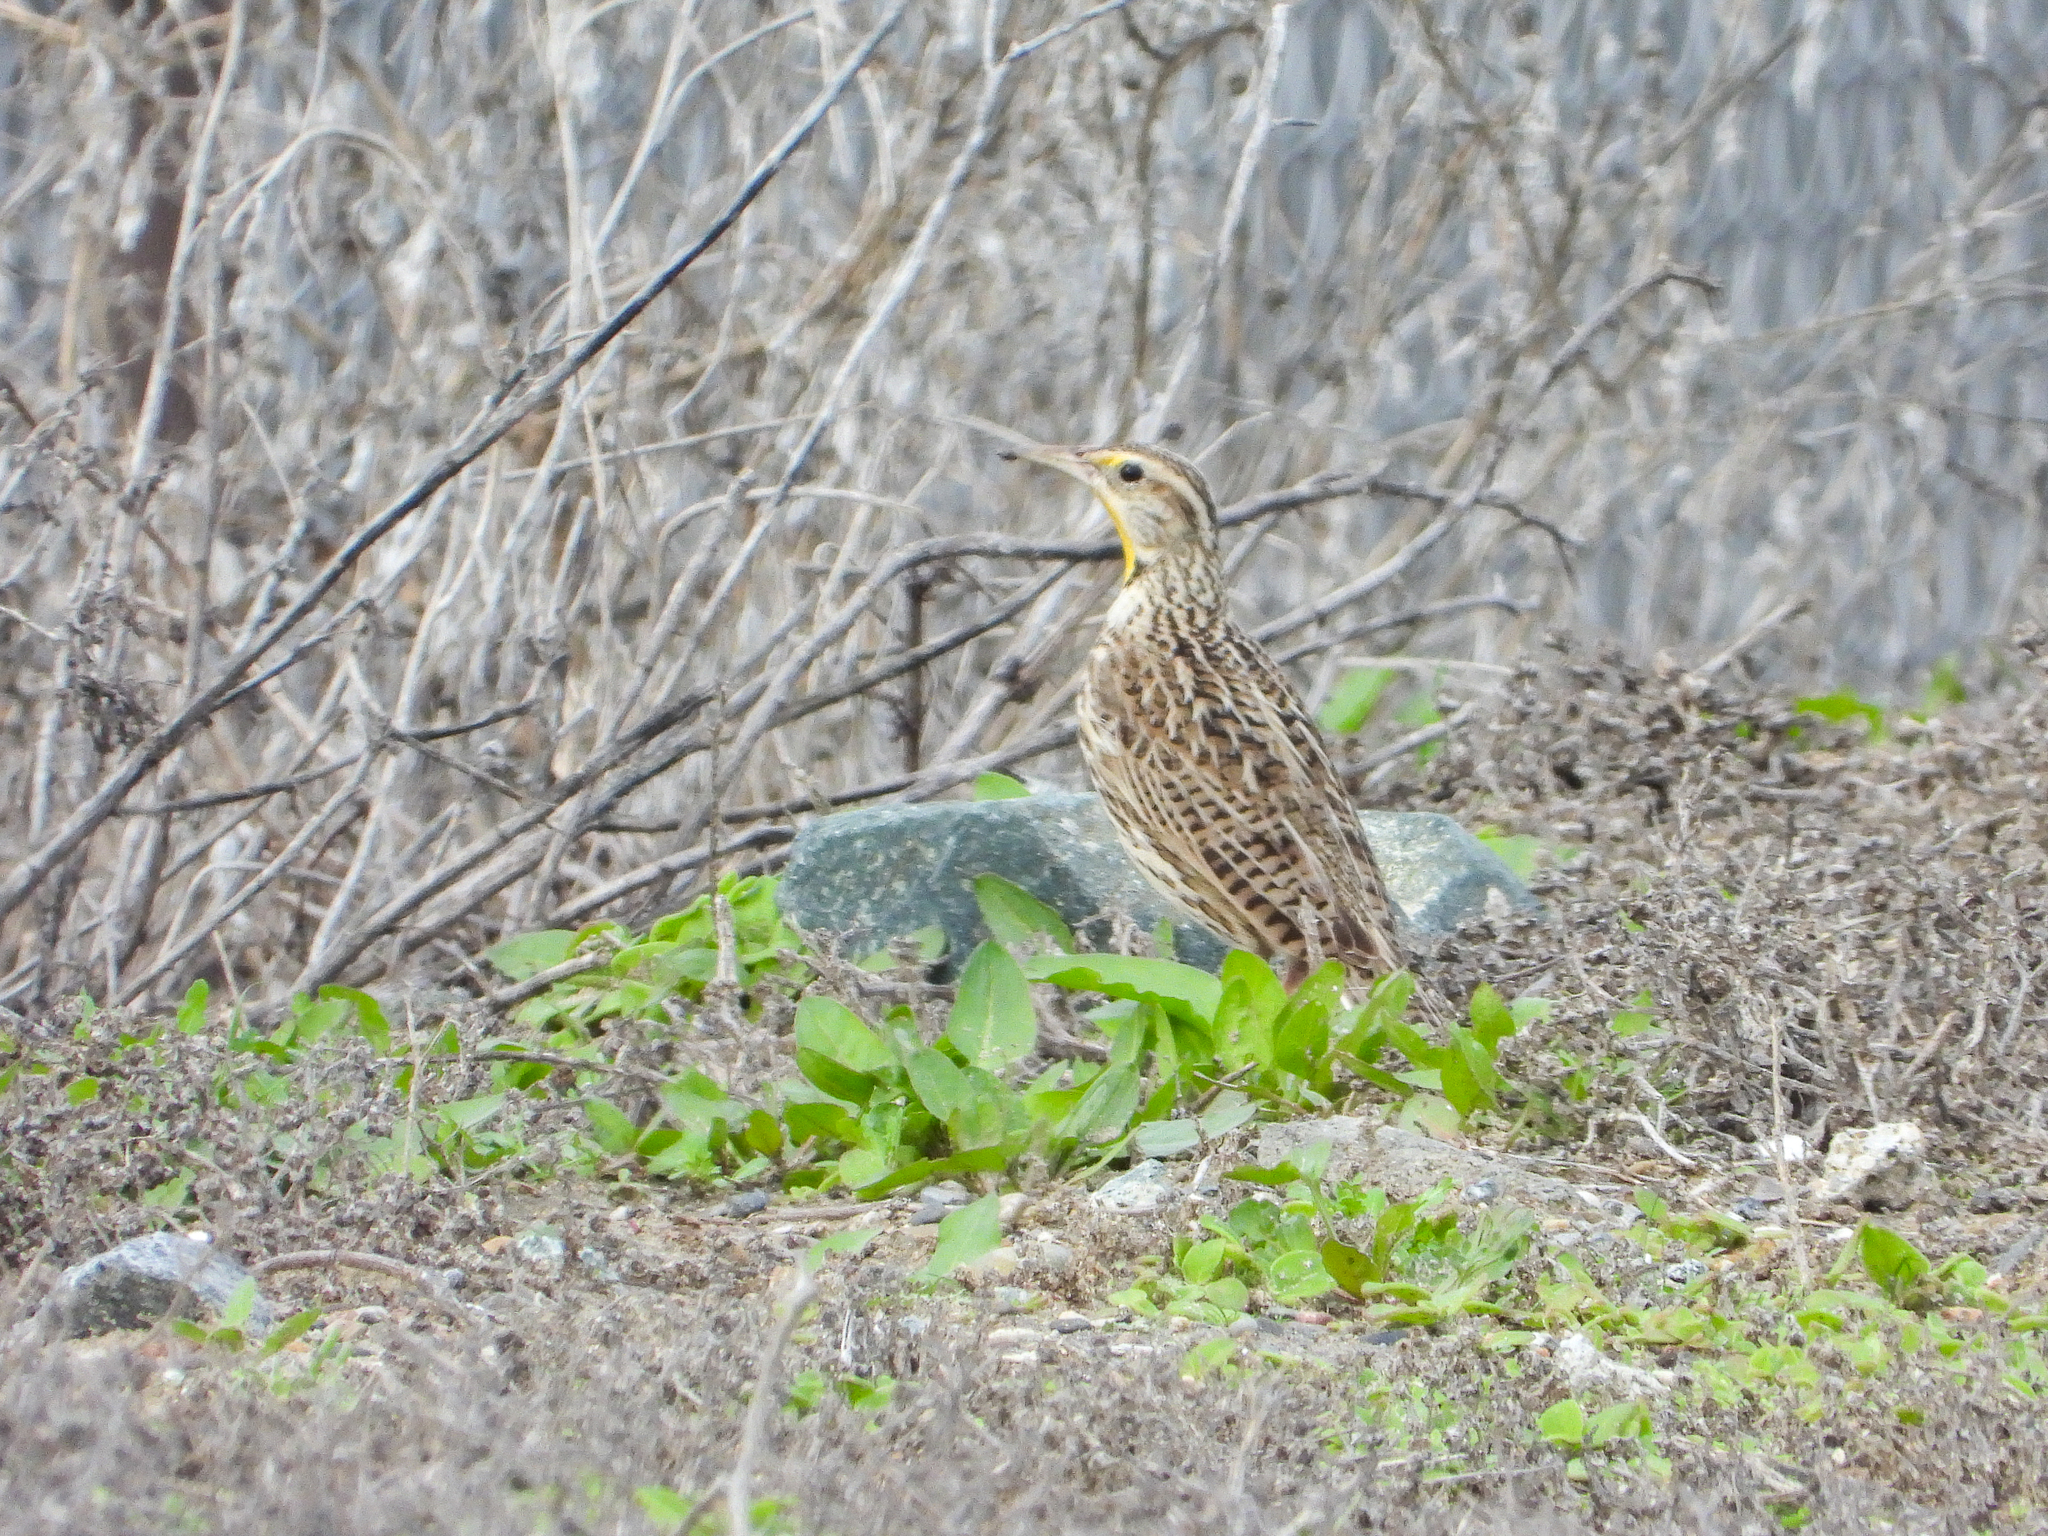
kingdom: Animalia
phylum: Chordata
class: Aves
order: Passeriformes
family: Icteridae
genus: Sturnella
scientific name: Sturnella neglecta
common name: Western meadowlark
